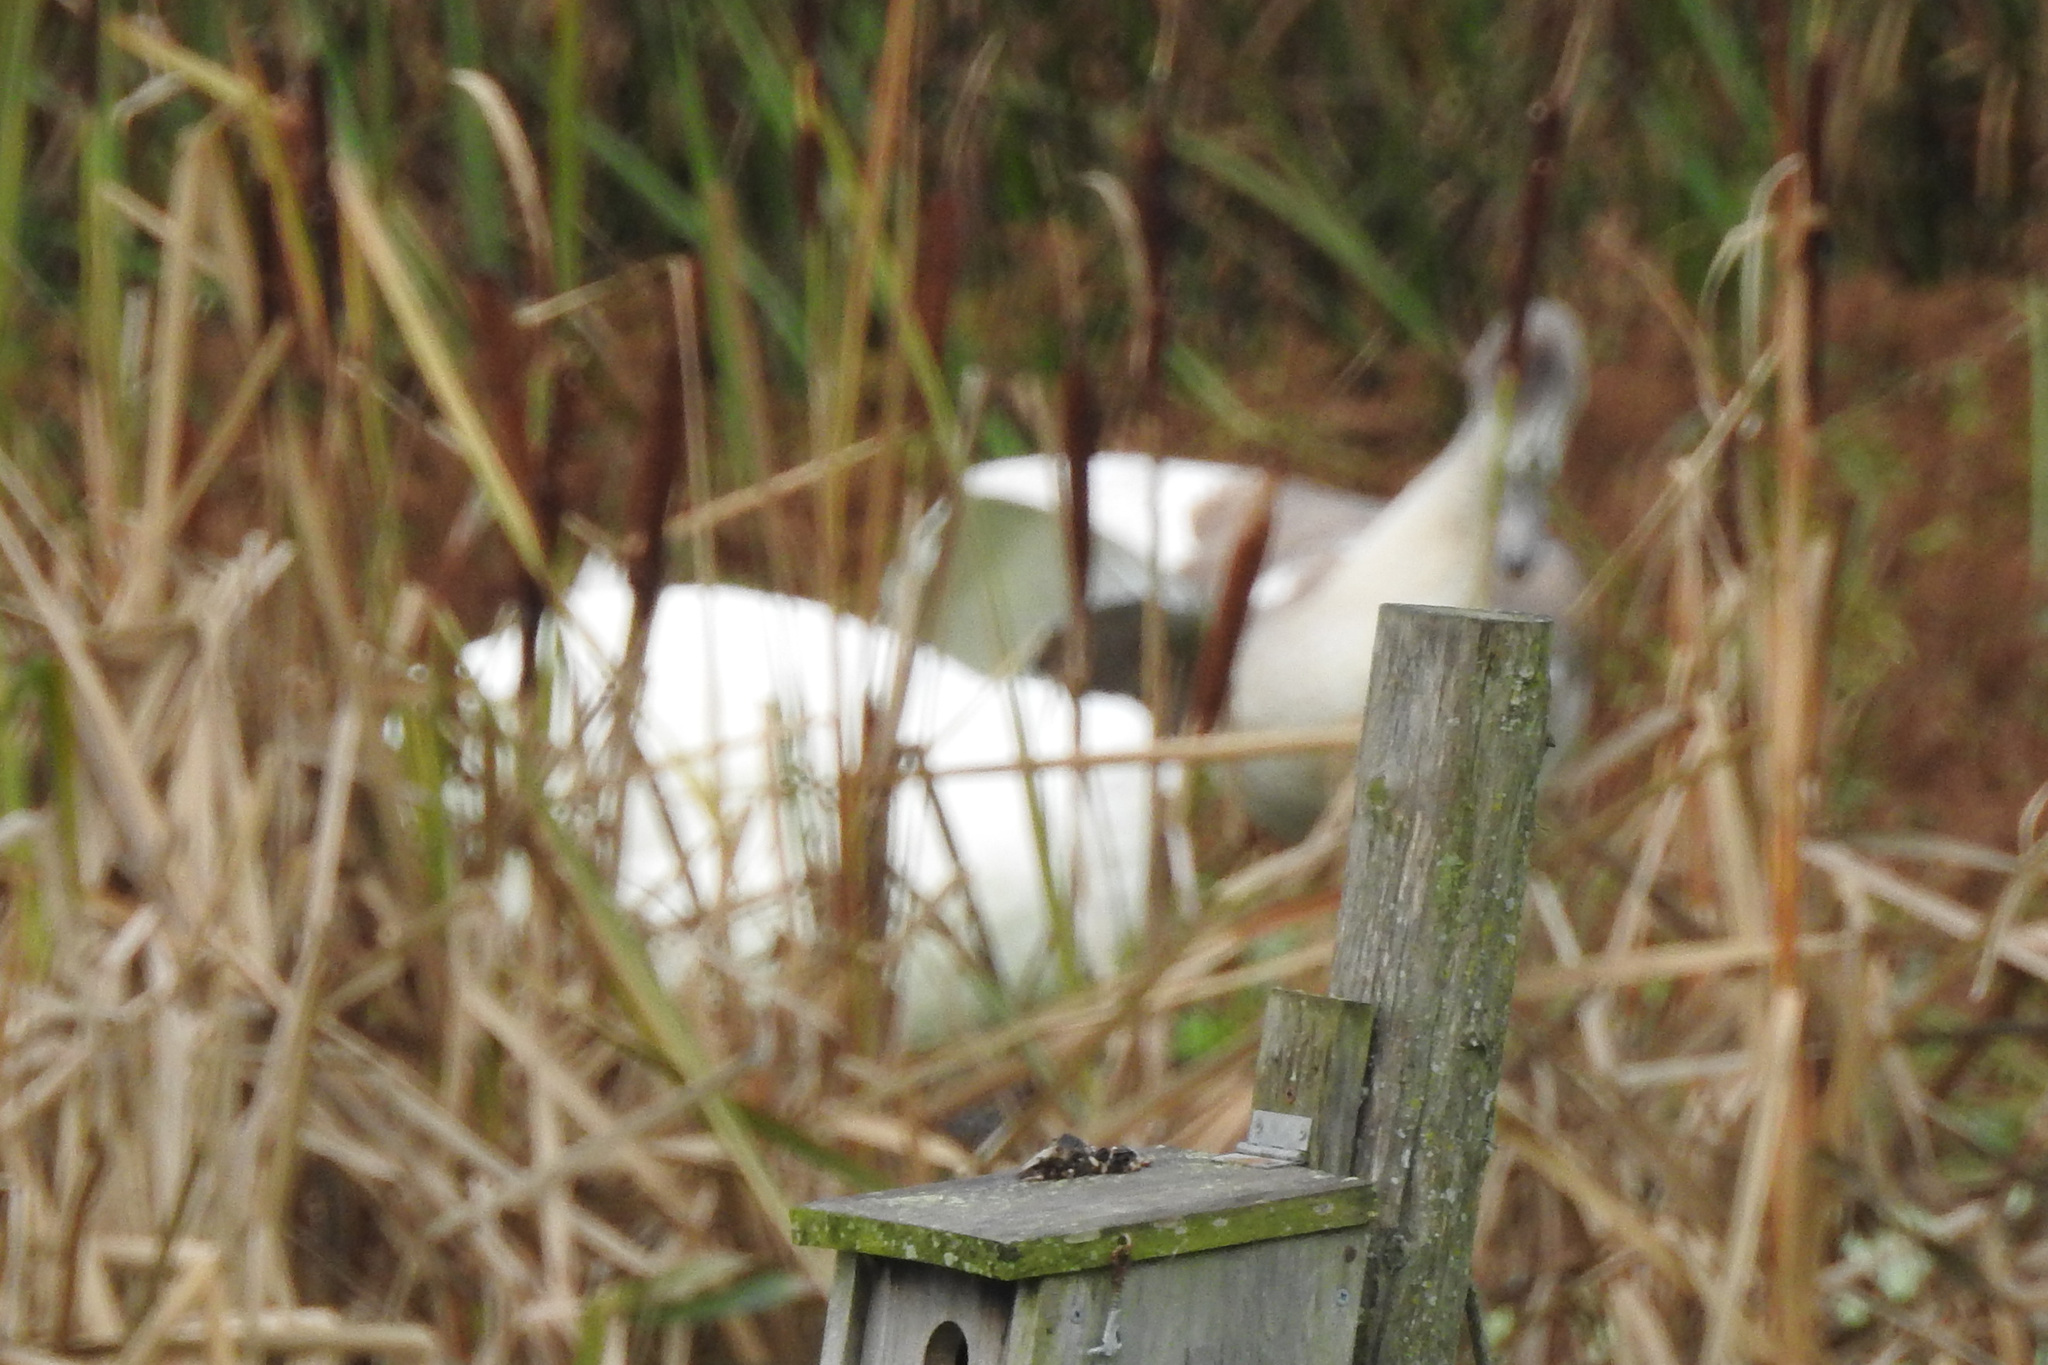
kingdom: Animalia
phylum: Chordata
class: Aves
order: Anseriformes
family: Anatidae
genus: Cygnus
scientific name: Cygnus olor
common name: Mute swan
